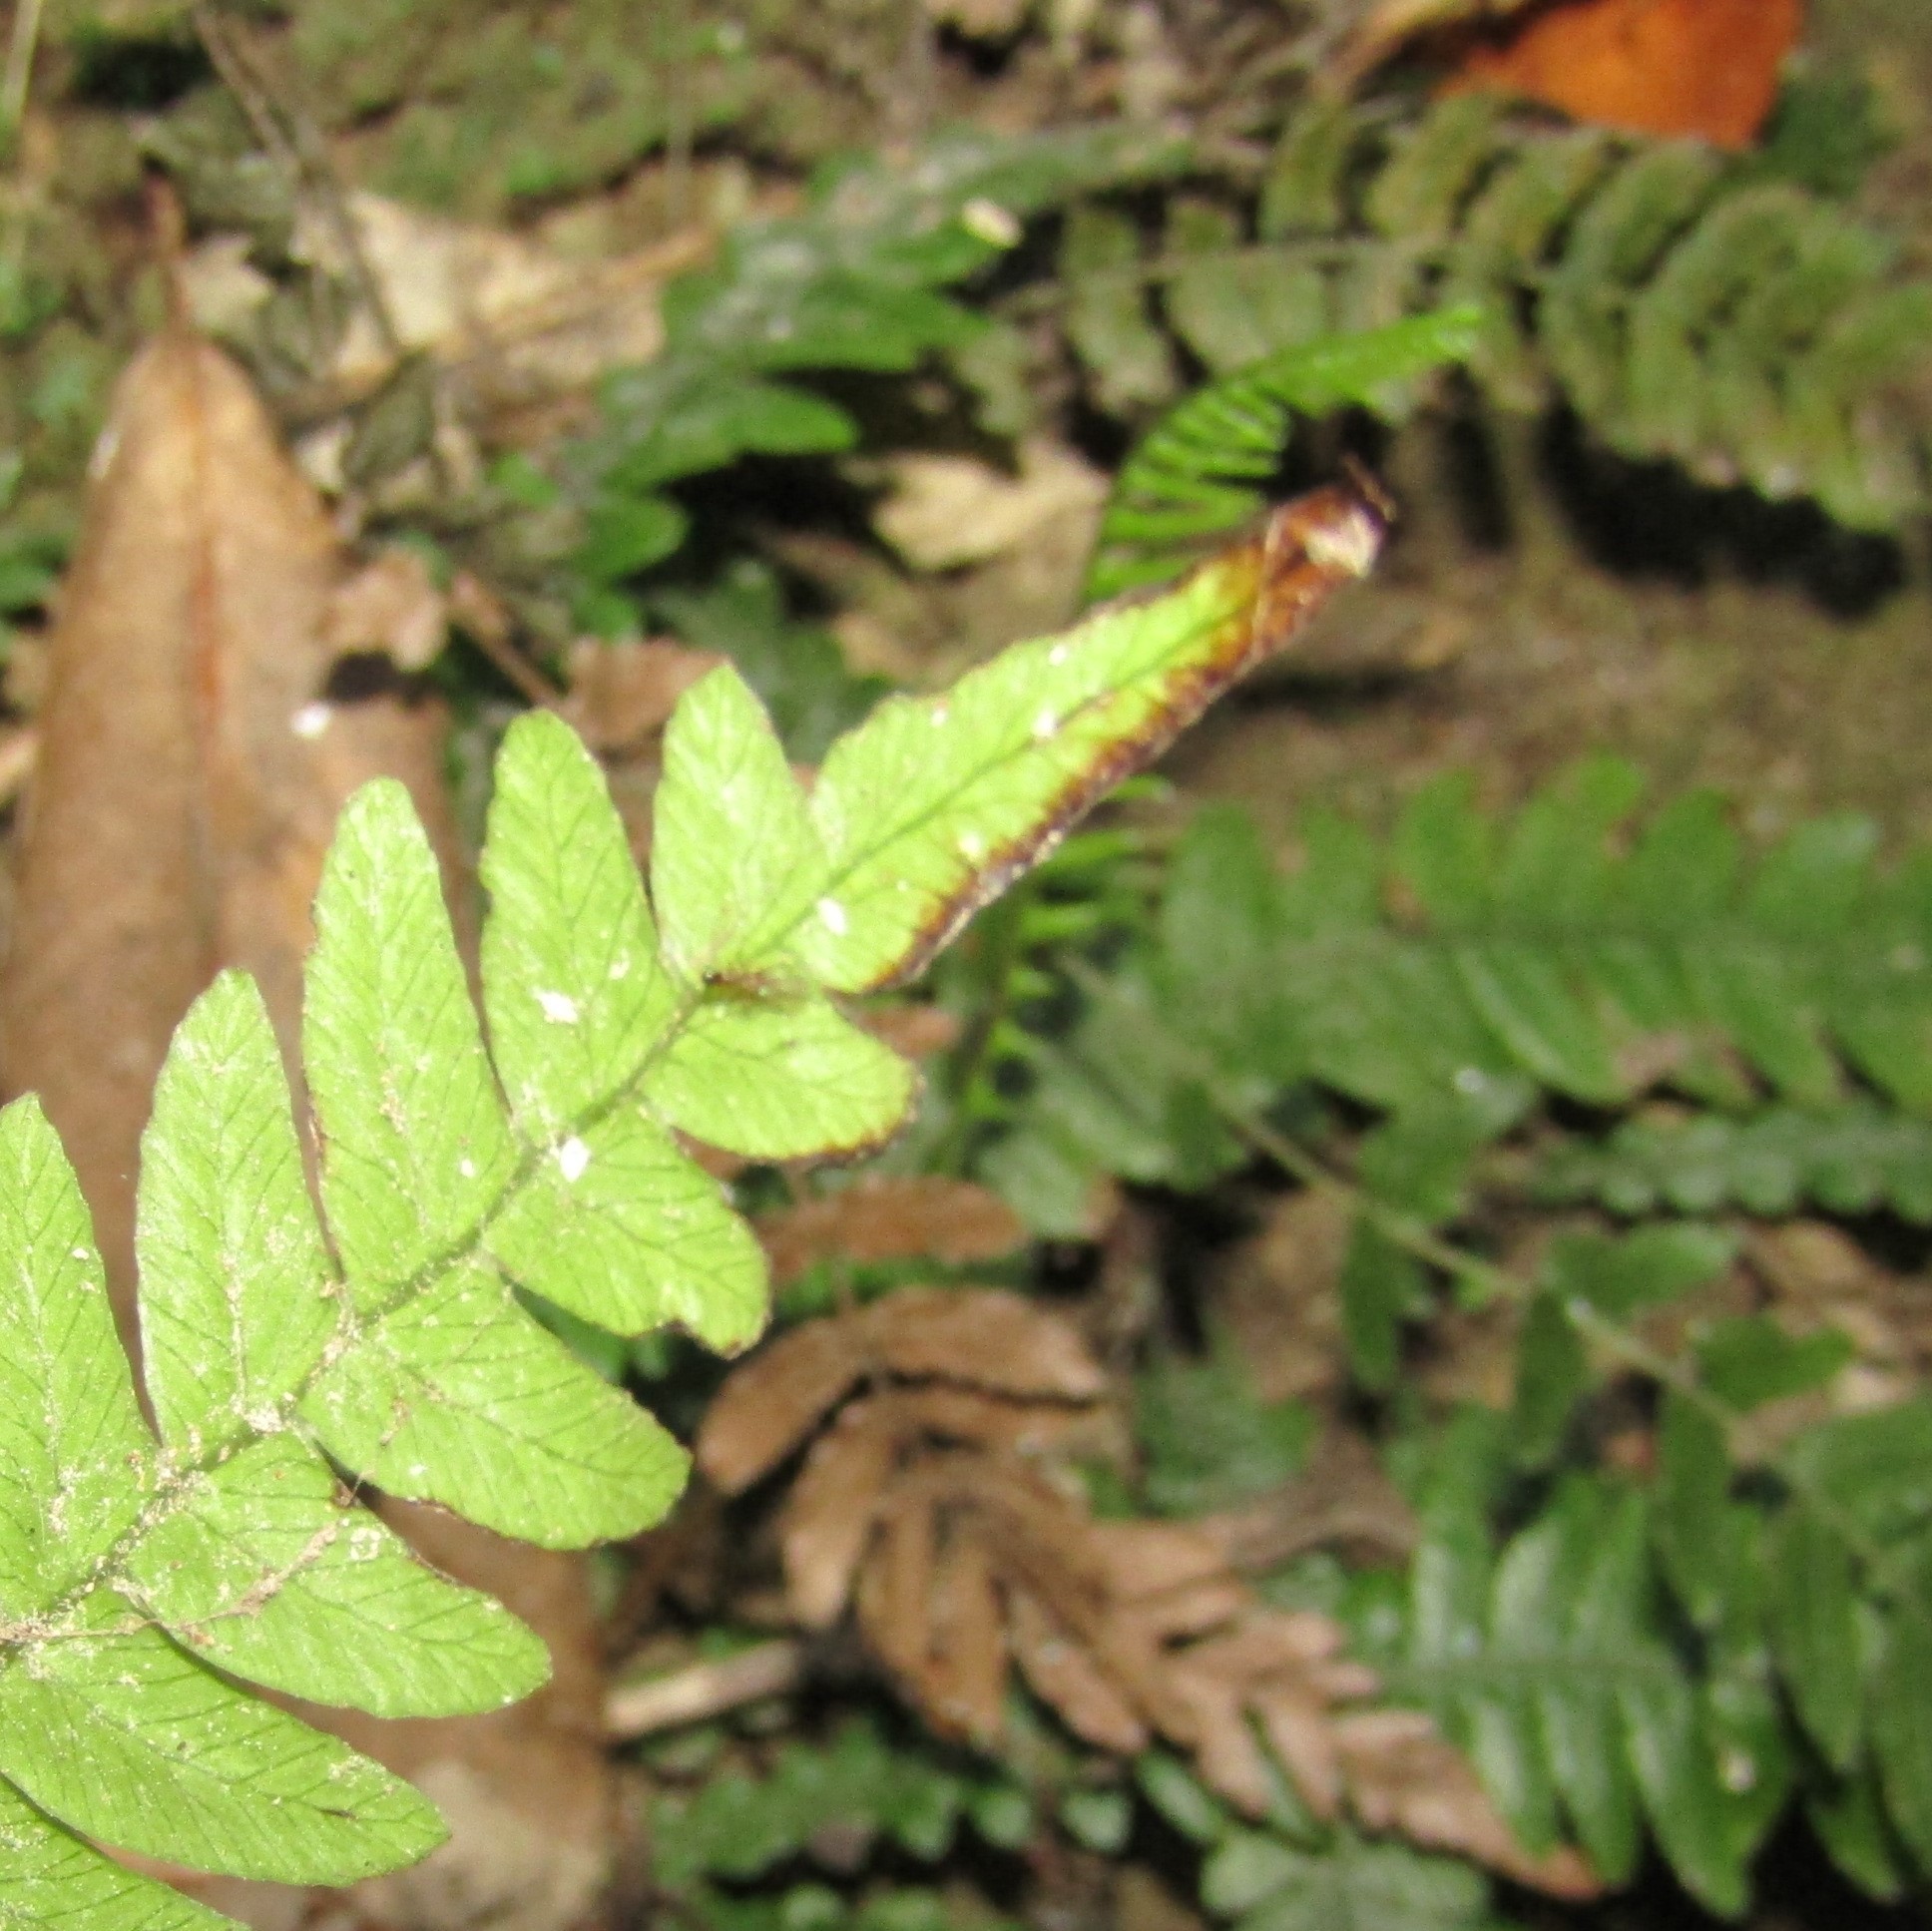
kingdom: Plantae
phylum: Tracheophyta
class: Polypodiopsida
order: Polypodiales
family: Blechnaceae
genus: Austroblechnum
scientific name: Austroblechnum lanceolatum
